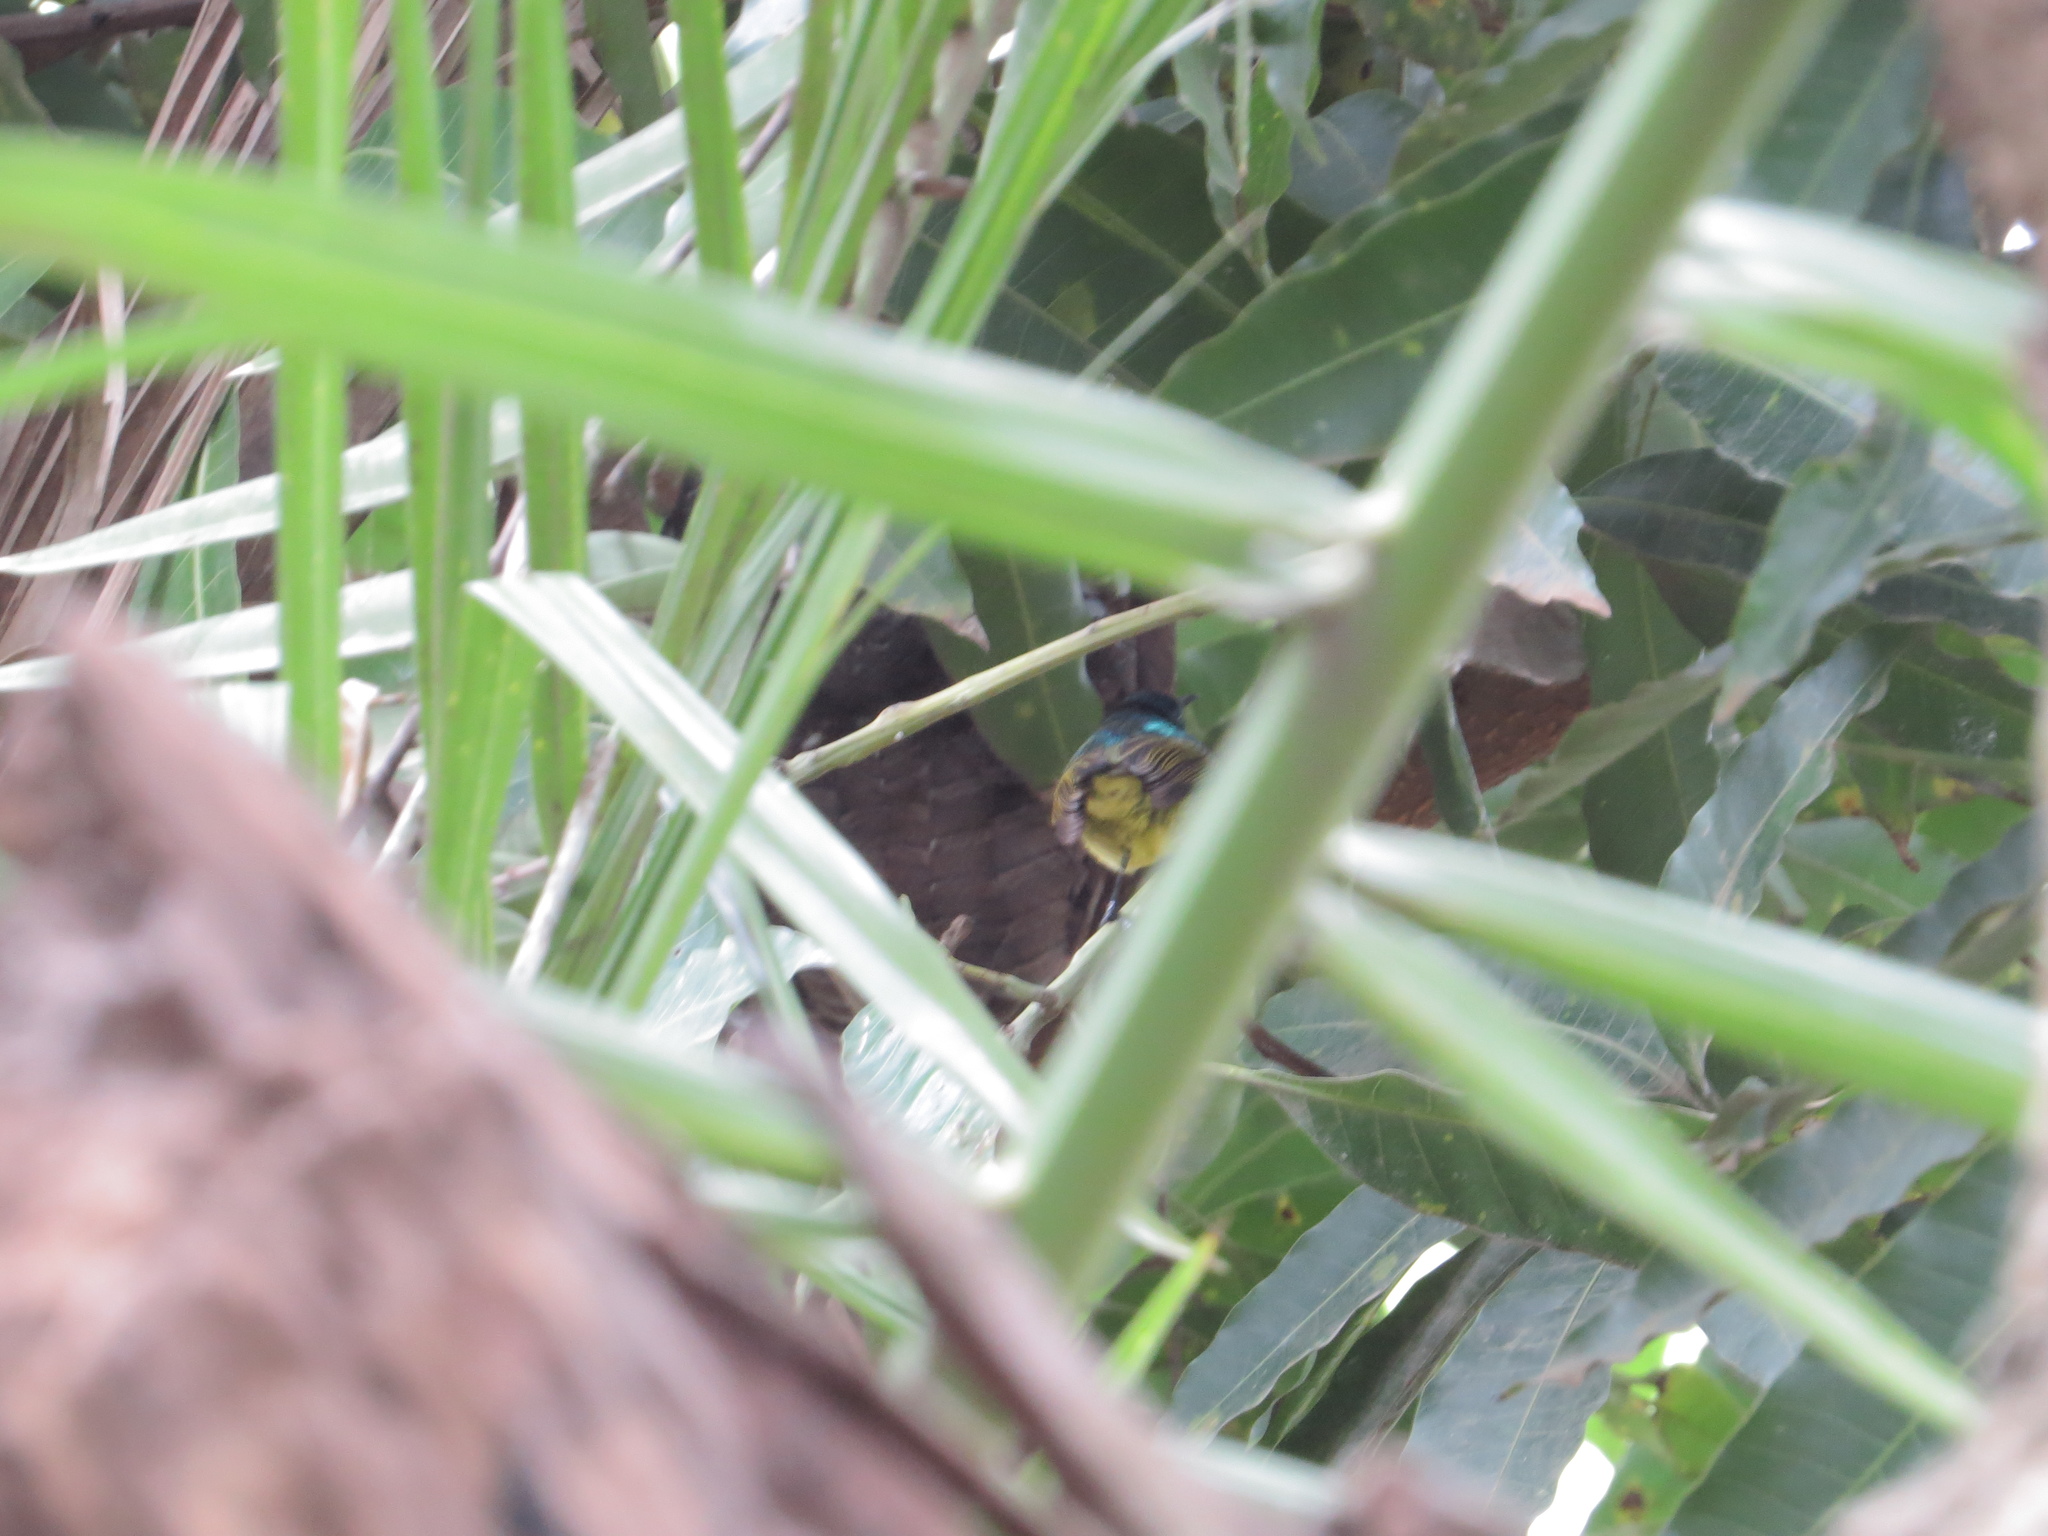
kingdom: Animalia
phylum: Chordata
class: Aves
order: Passeriformes
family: Nectariniidae
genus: Hedydipna
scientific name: Hedydipna collaris
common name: Collared sunbird
